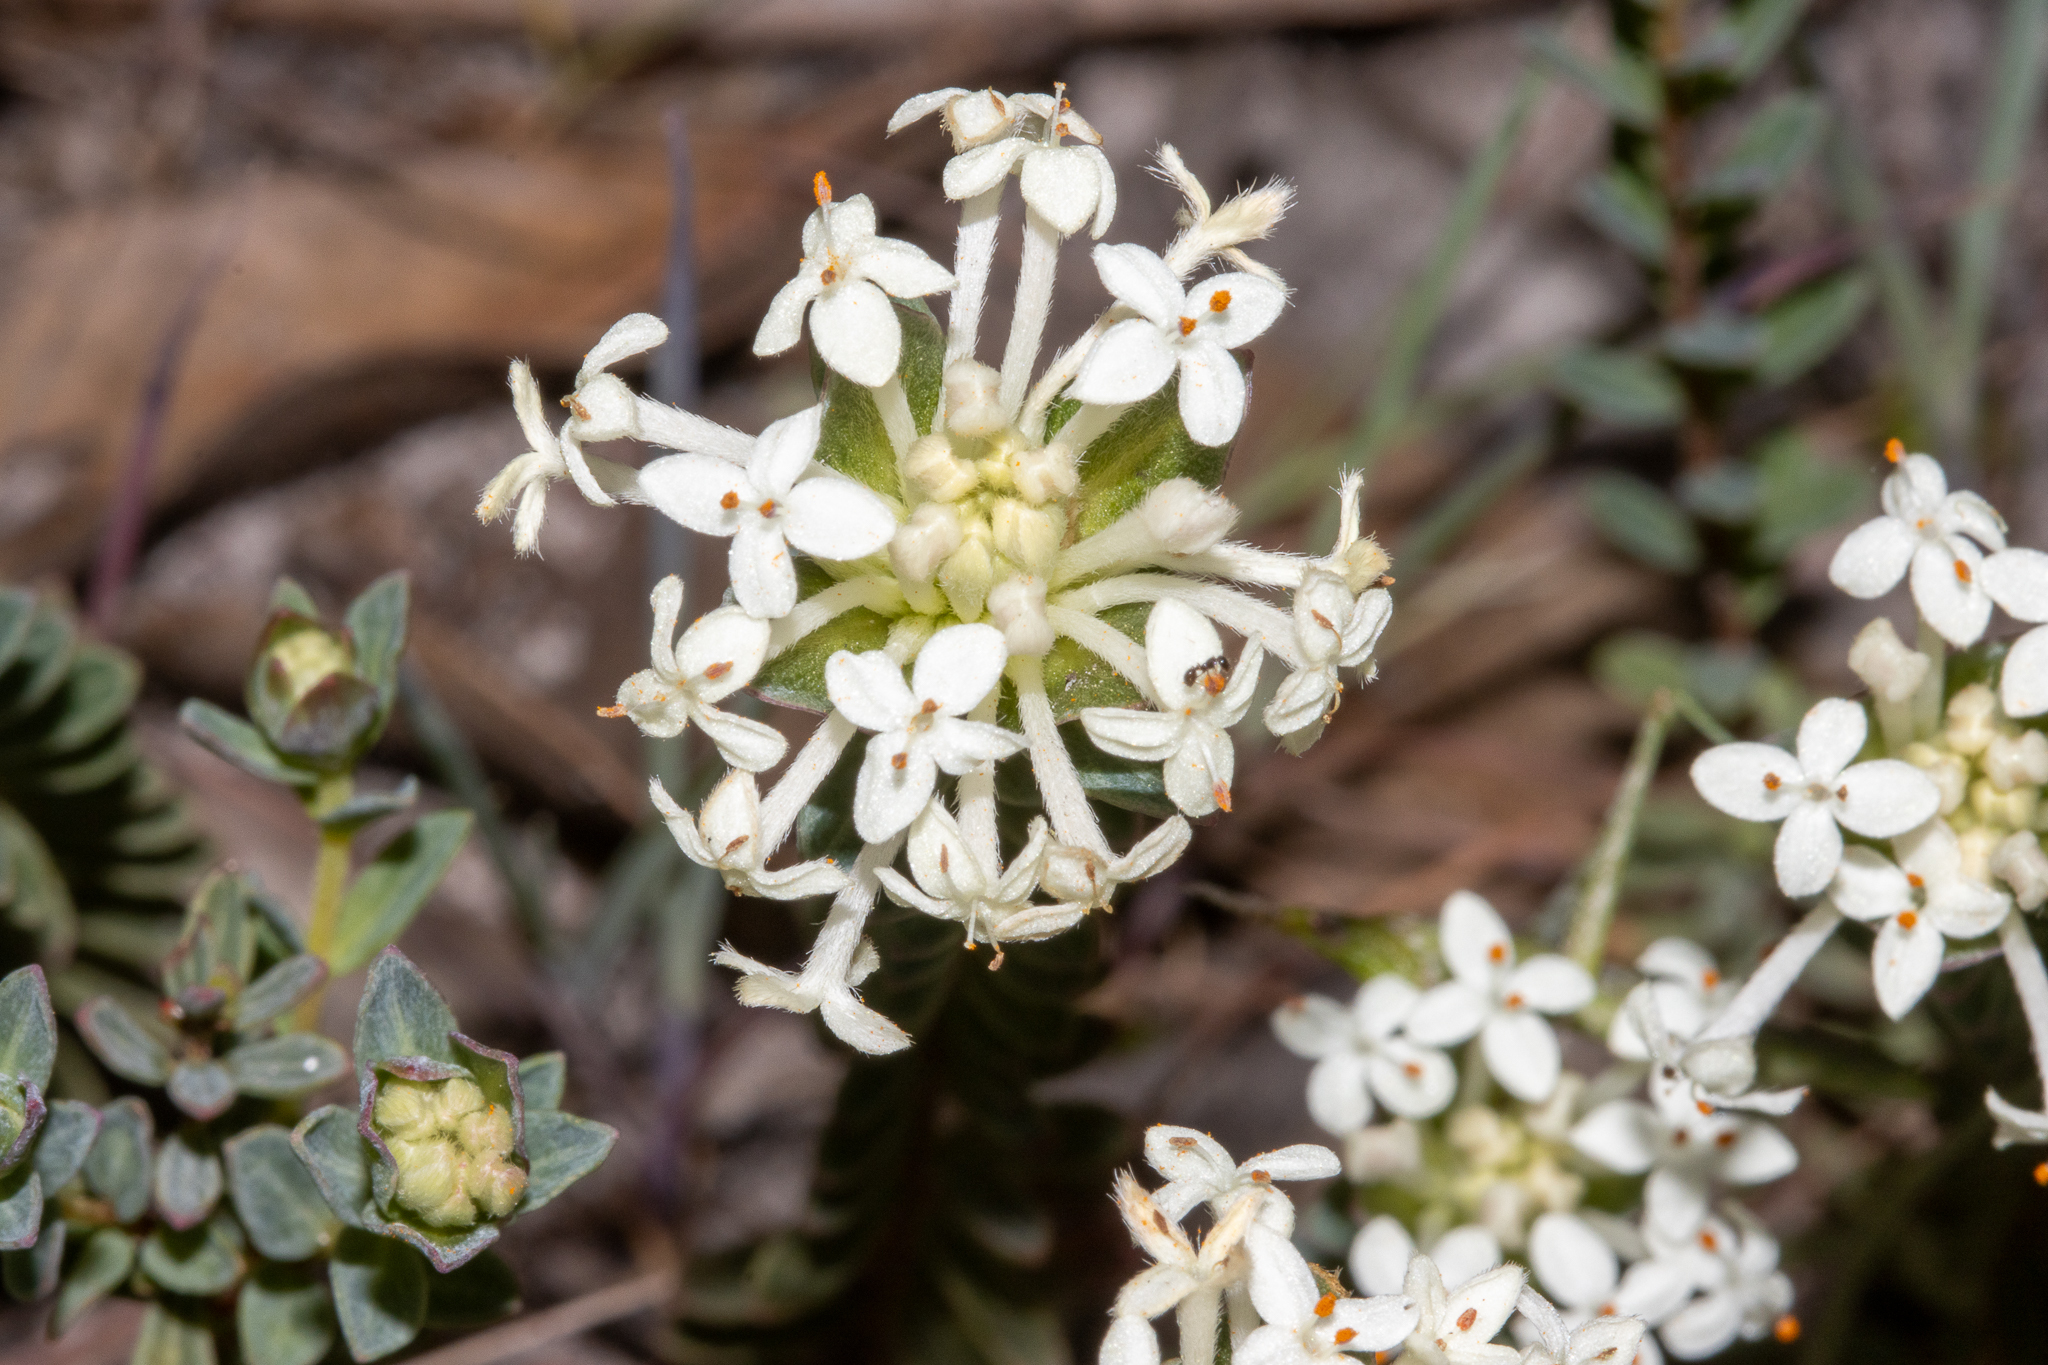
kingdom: Plantae
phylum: Tracheophyta
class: Magnoliopsida
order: Malvales
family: Thymelaeaceae
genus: Pimelea
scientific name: Pimelea humilis
